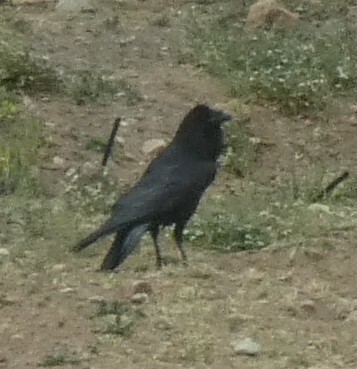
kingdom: Animalia
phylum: Chordata
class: Aves
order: Passeriformes
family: Corvidae
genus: Corvus
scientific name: Corvus corax
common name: Common raven
